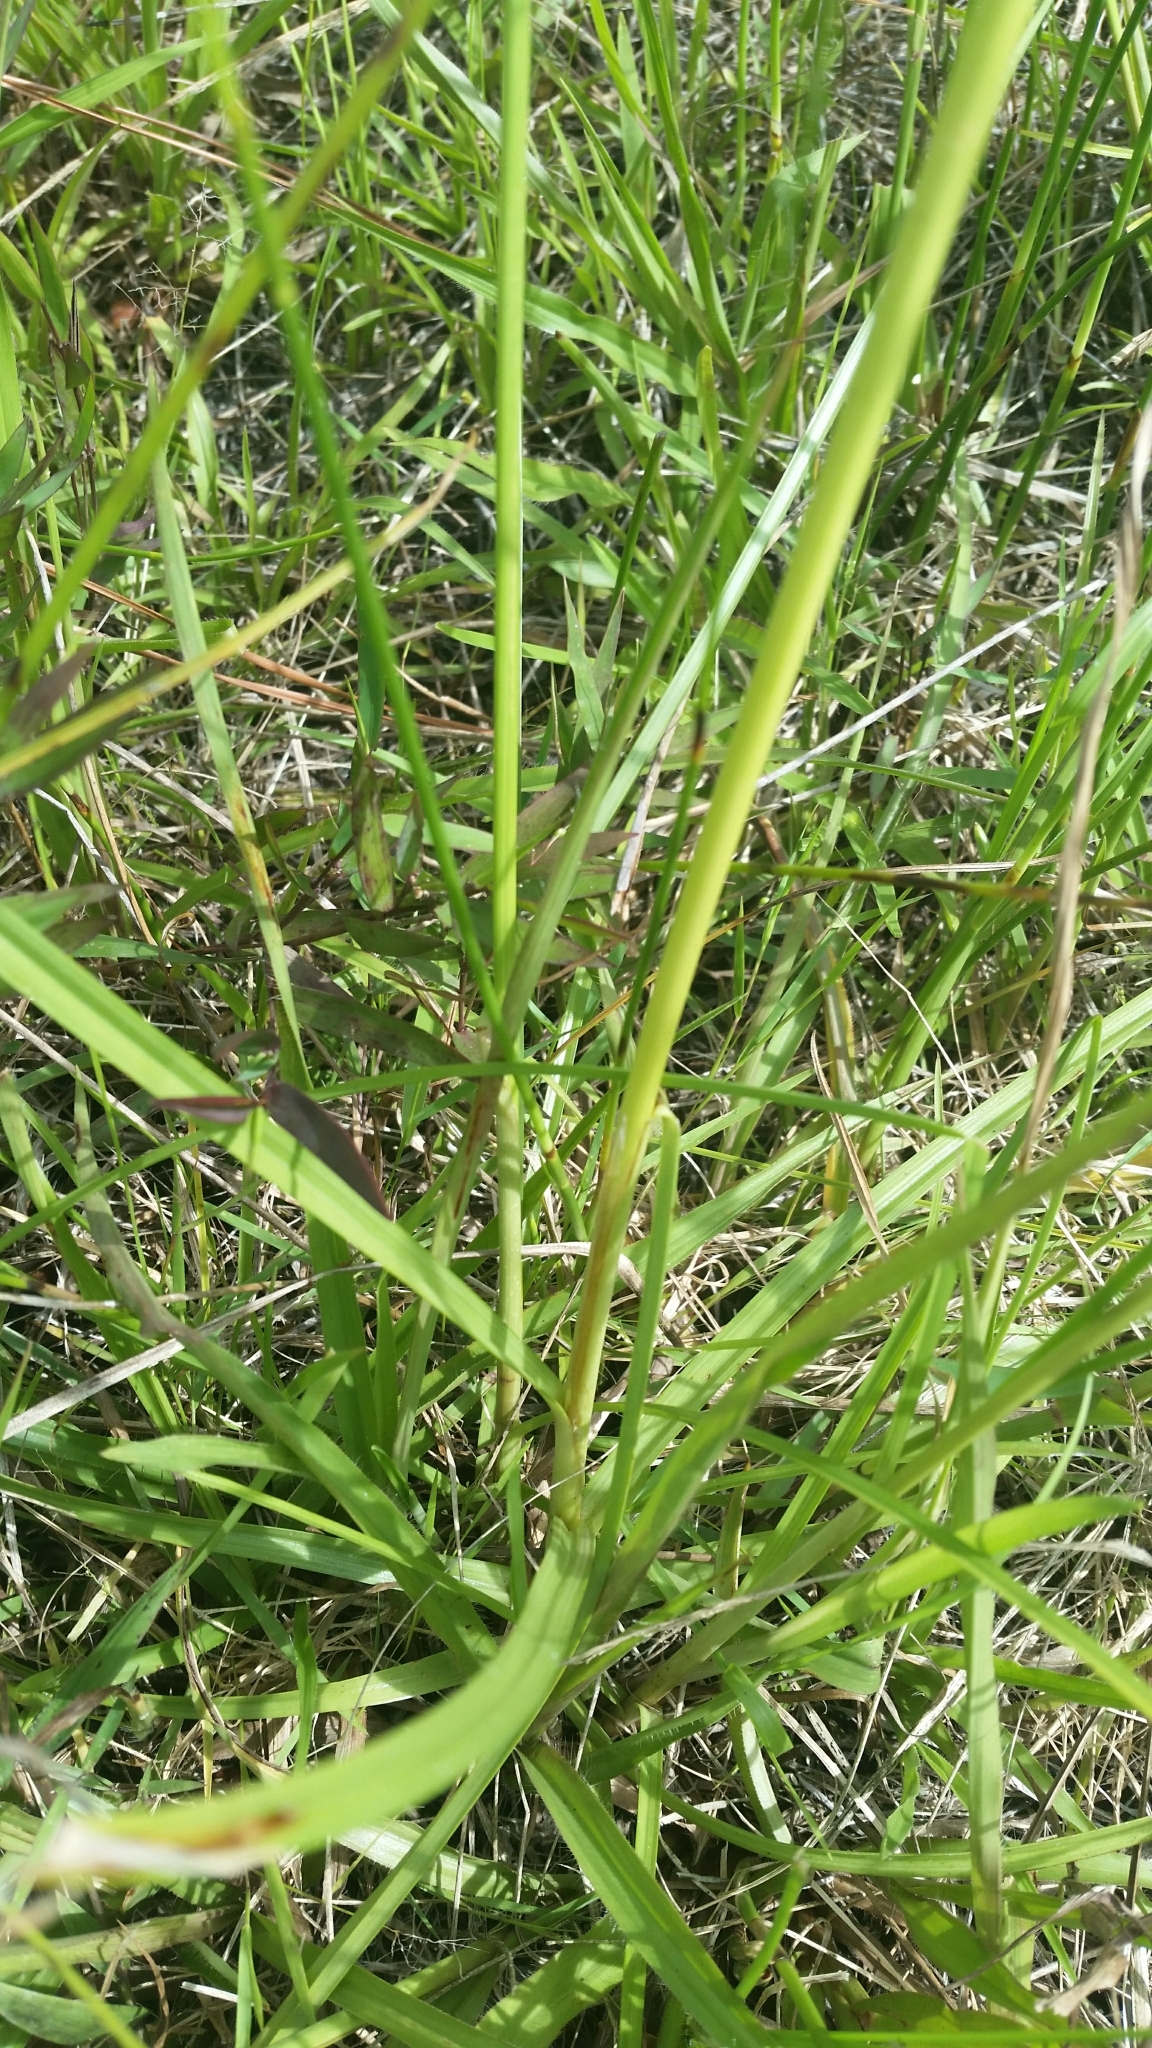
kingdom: Plantae
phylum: Tracheophyta
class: Liliopsida
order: Poales
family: Cyperaceae
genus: Cyperus
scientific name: Cyperus polystachyos
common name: Bunchy flat sedge
